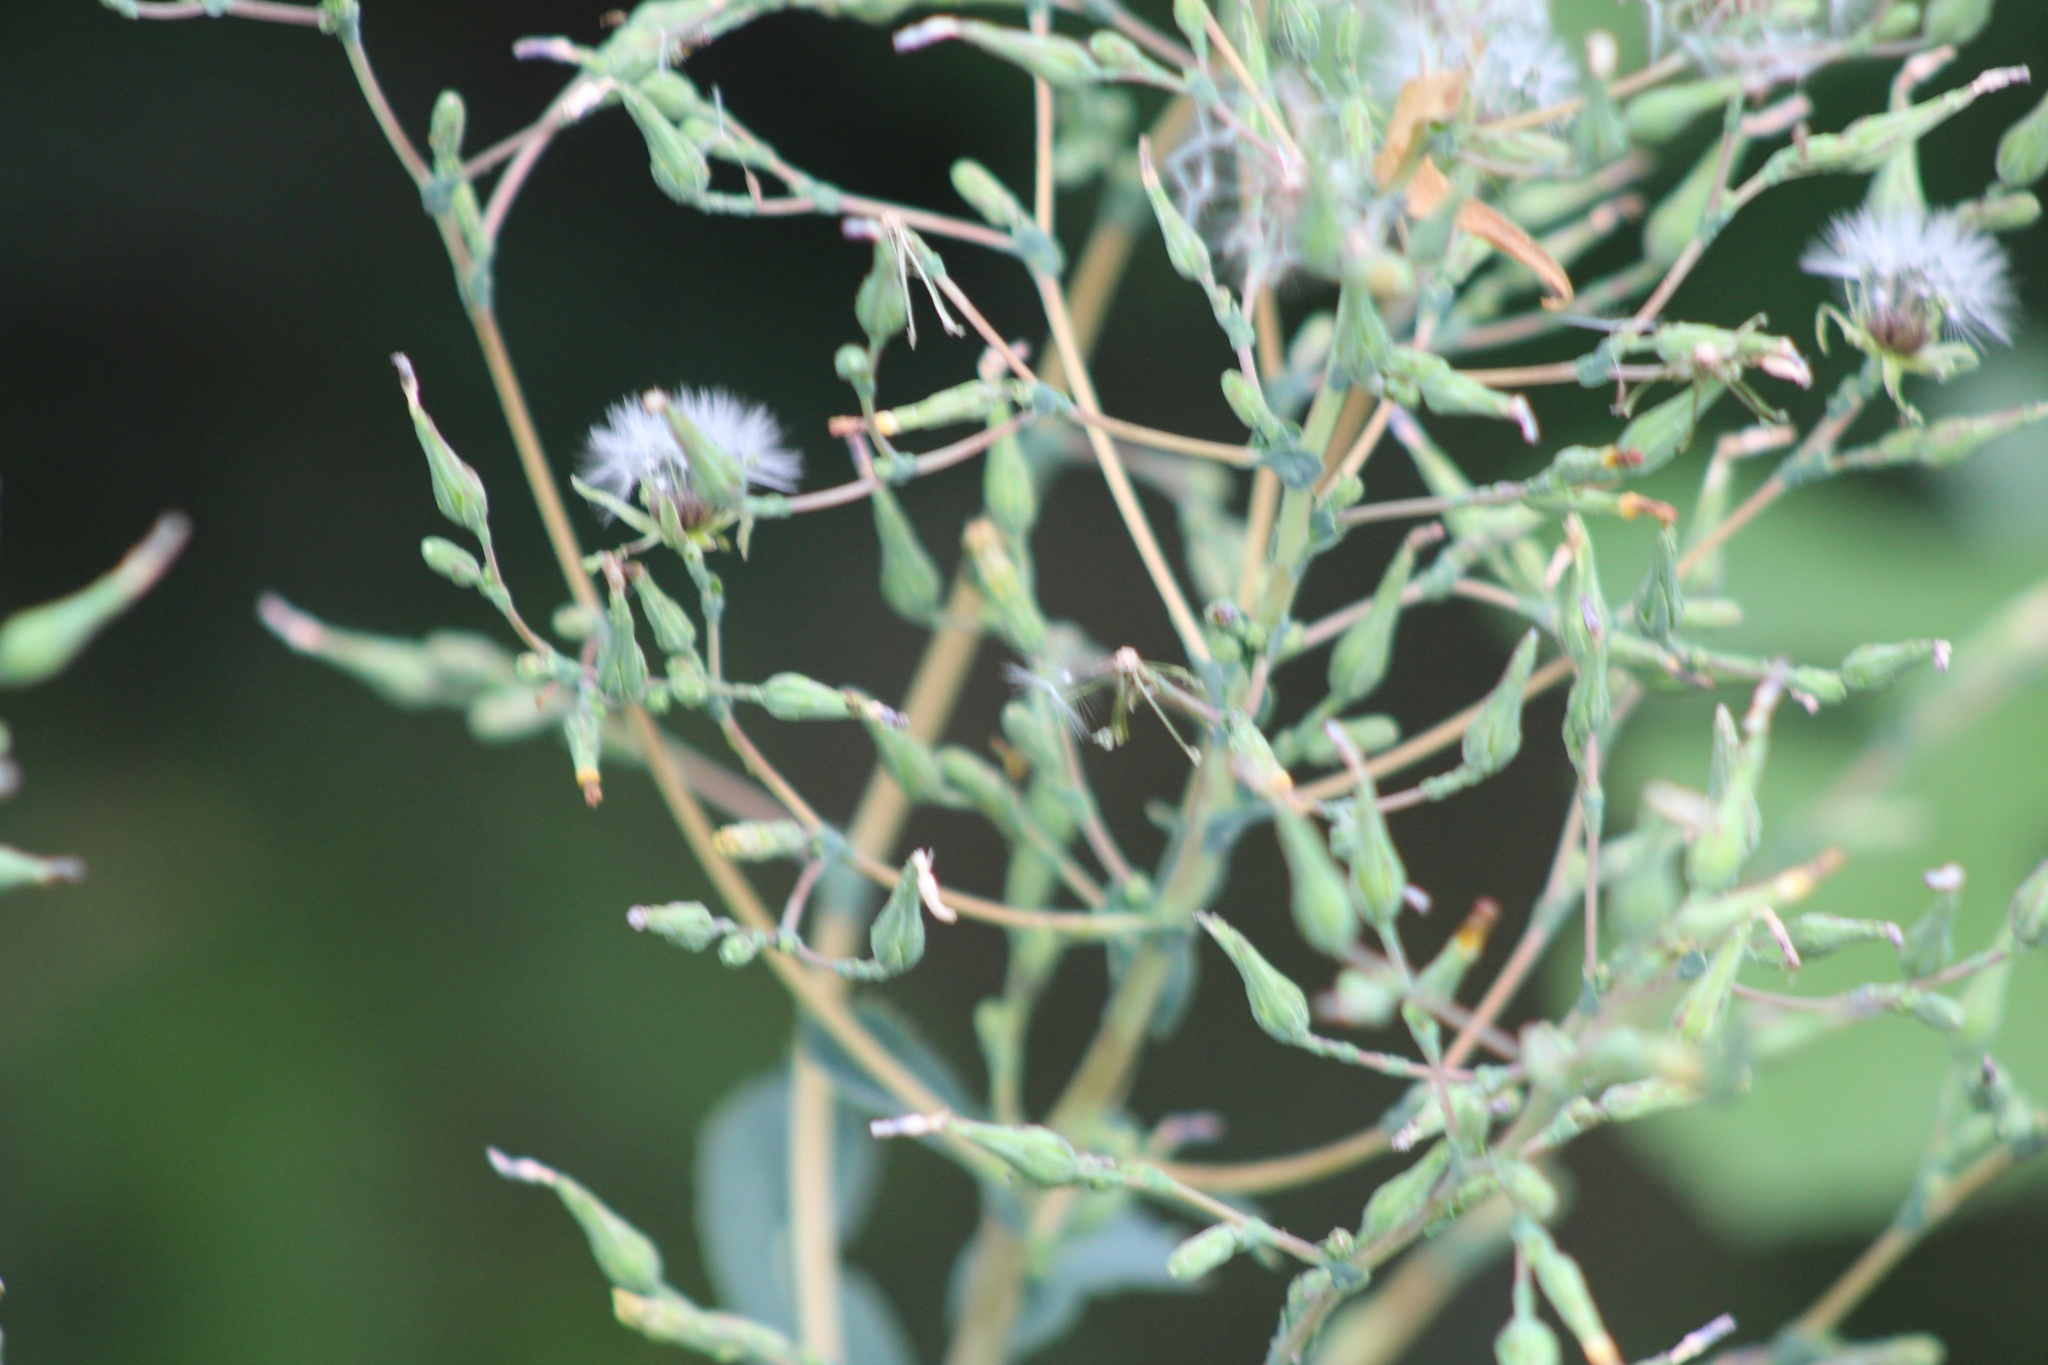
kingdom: Plantae
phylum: Tracheophyta
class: Magnoliopsida
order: Asterales
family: Asteraceae
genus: Lactuca
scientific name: Lactuca serriola
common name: Prickly lettuce
